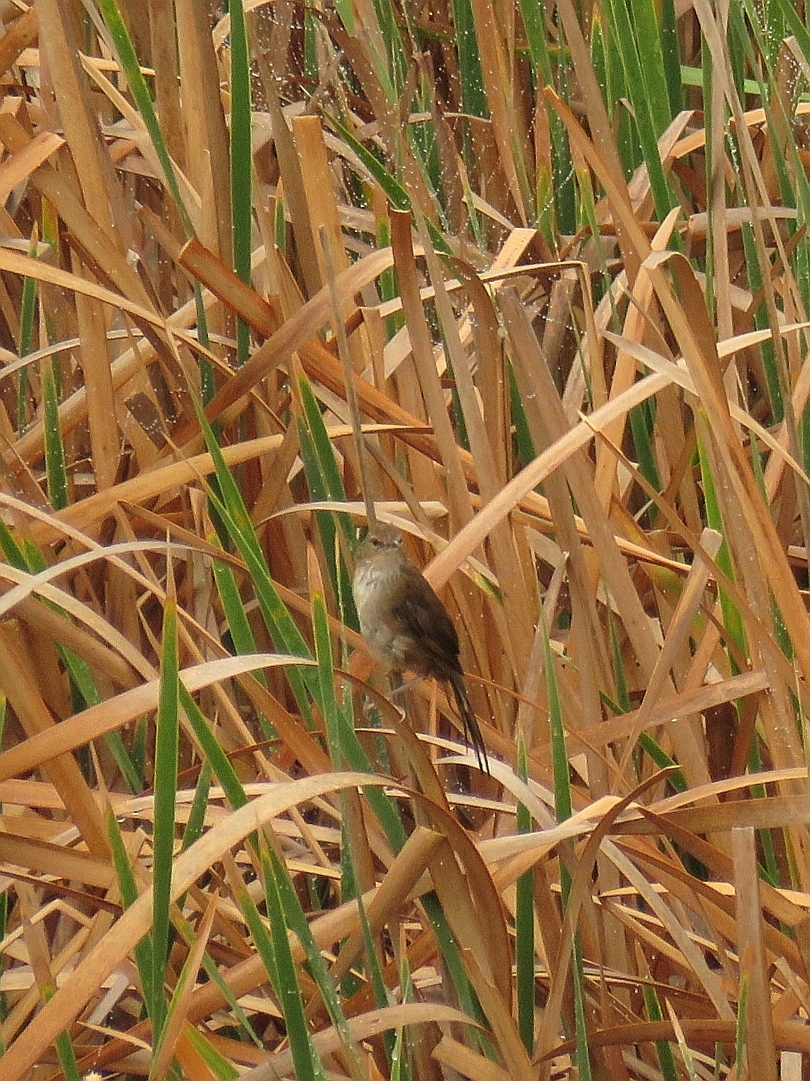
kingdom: Animalia
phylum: Chordata
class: Aves
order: Passeriformes
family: Locustellidae
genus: Bradypterus
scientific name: Bradypterus baboecala
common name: Little rush warbler
